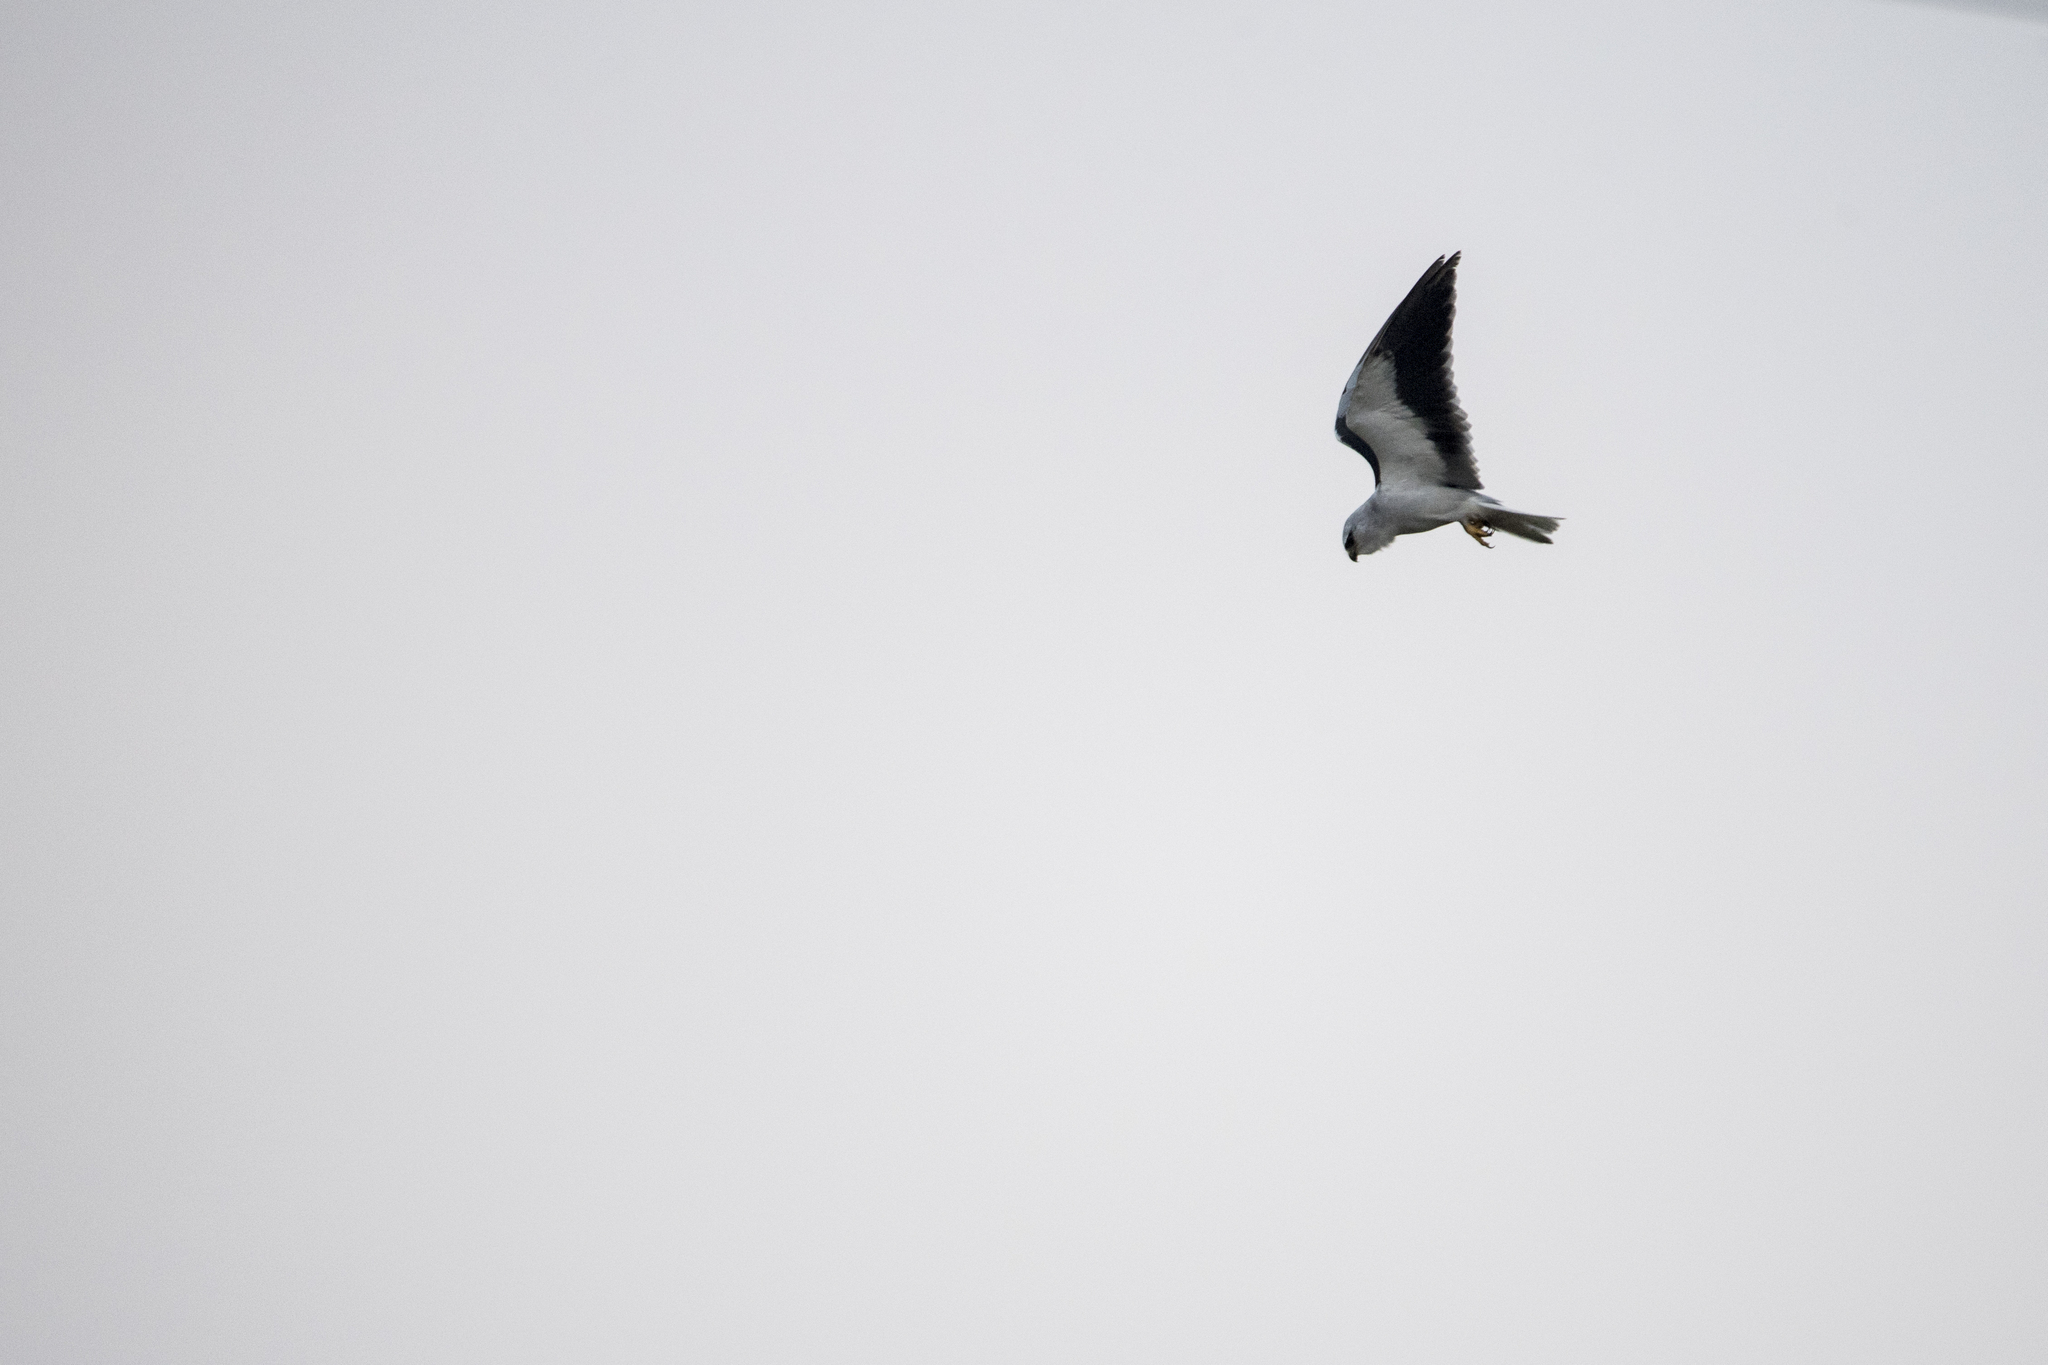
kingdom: Animalia
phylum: Chordata
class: Aves
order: Accipitriformes
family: Accipitridae
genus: Elanus
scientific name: Elanus caeruleus
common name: Black-winged kite
